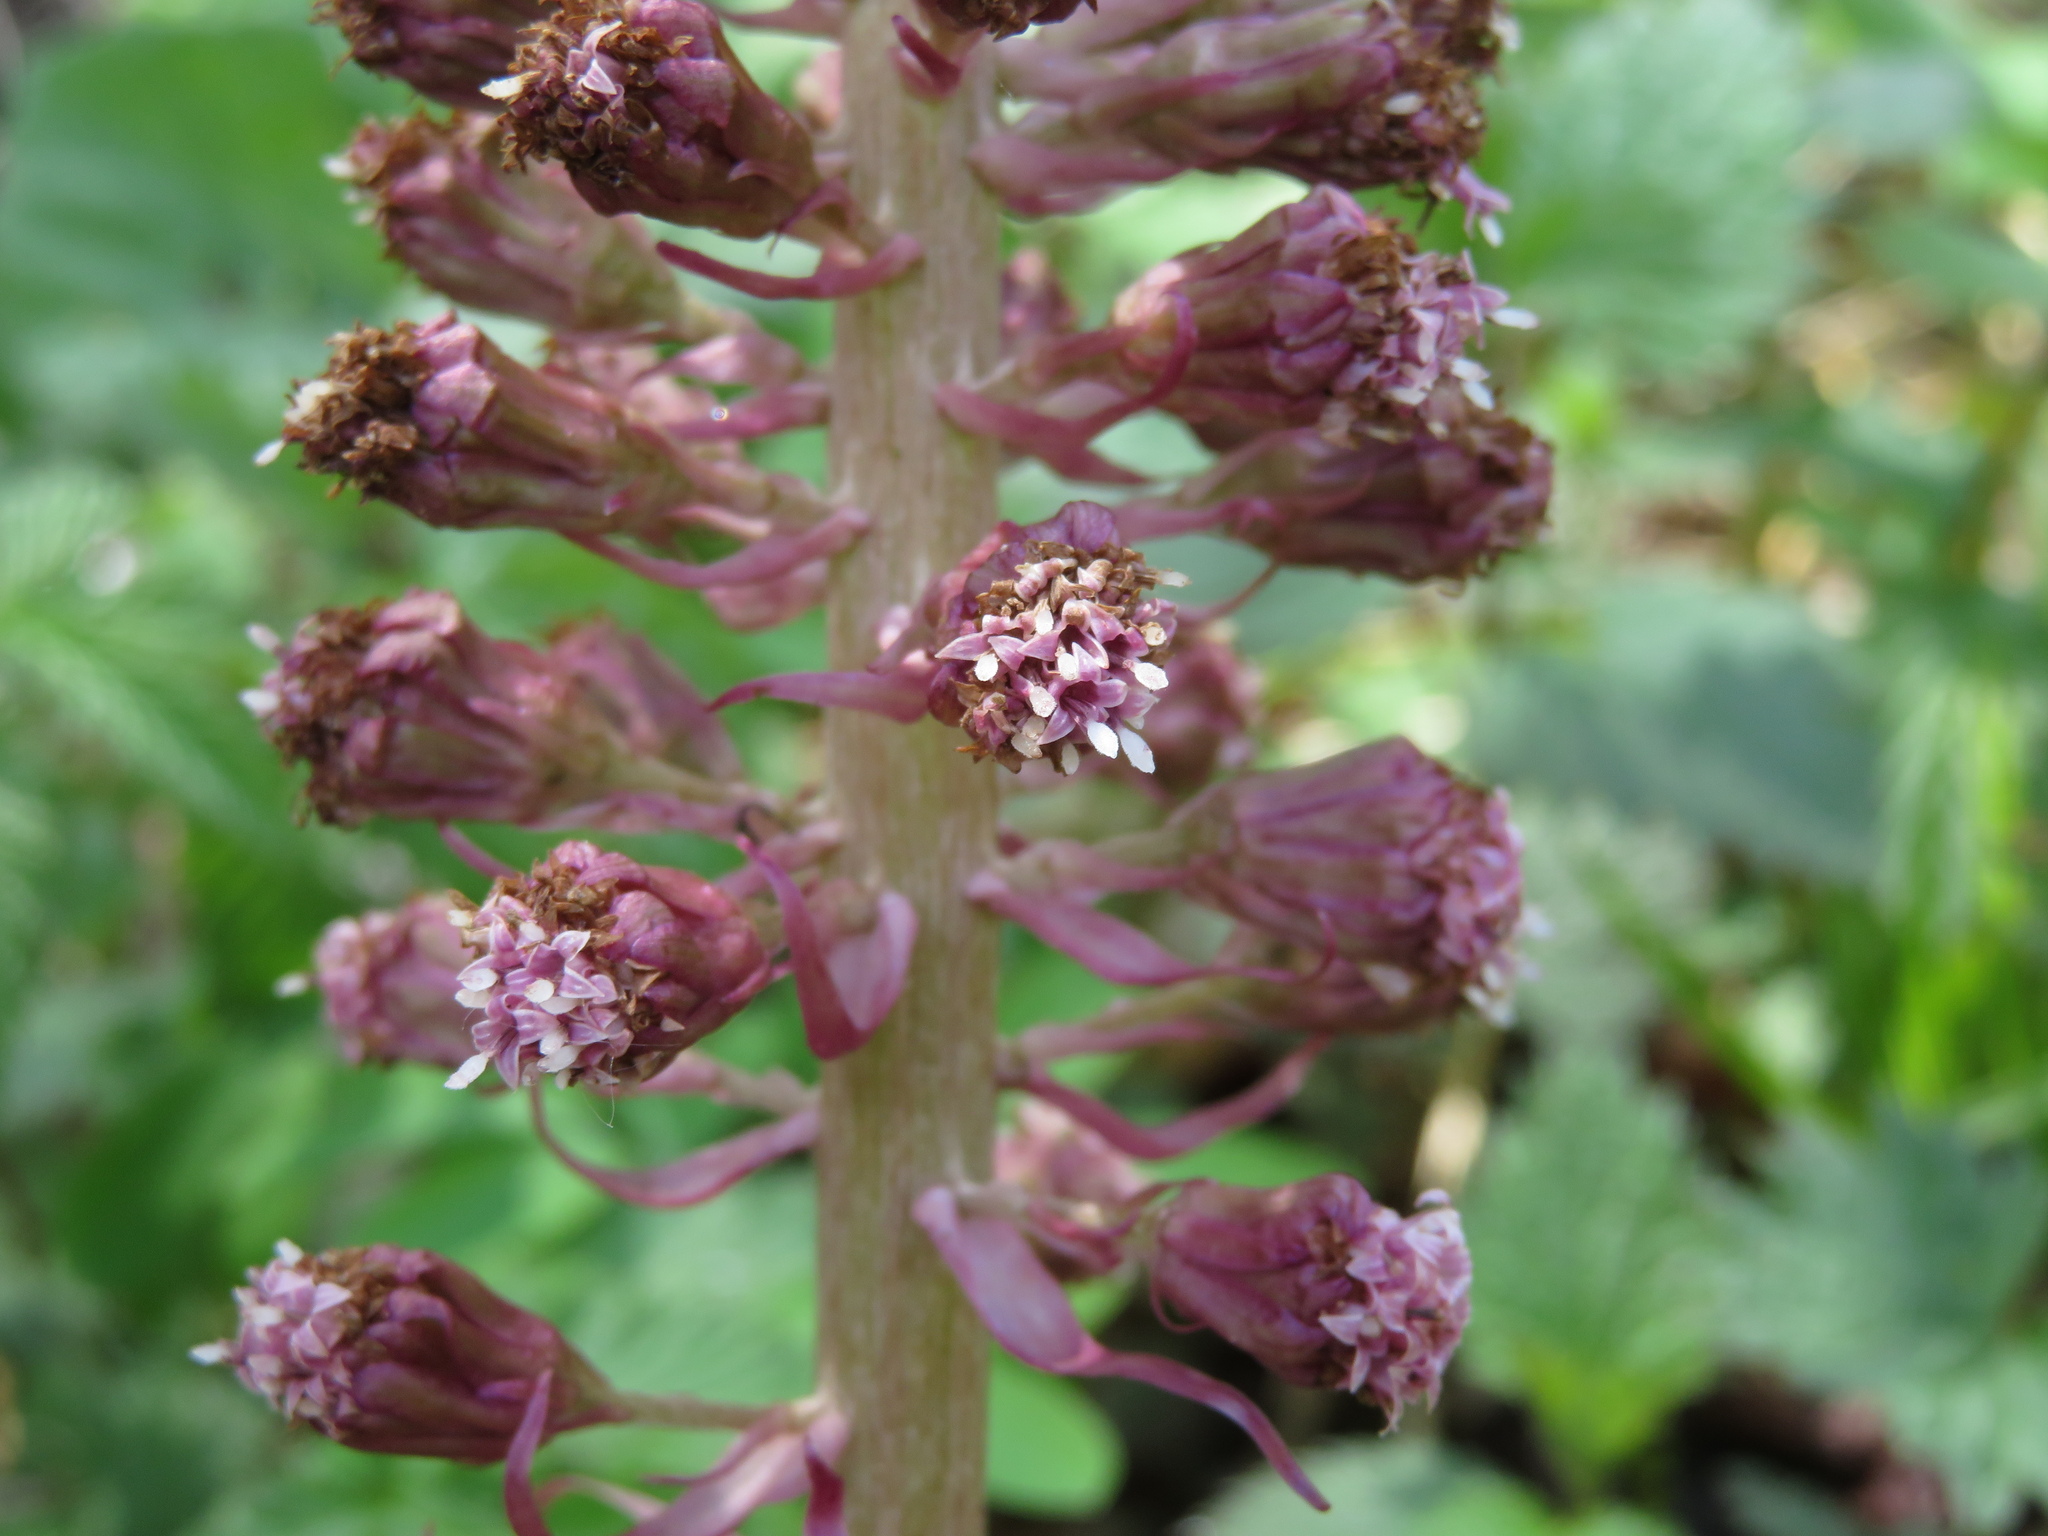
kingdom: Plantae
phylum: Tracheophyta
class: Magnoliopsida
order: Asterales
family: Asteraceae
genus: Petasites
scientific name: Petasites hybridus
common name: Butterbur
